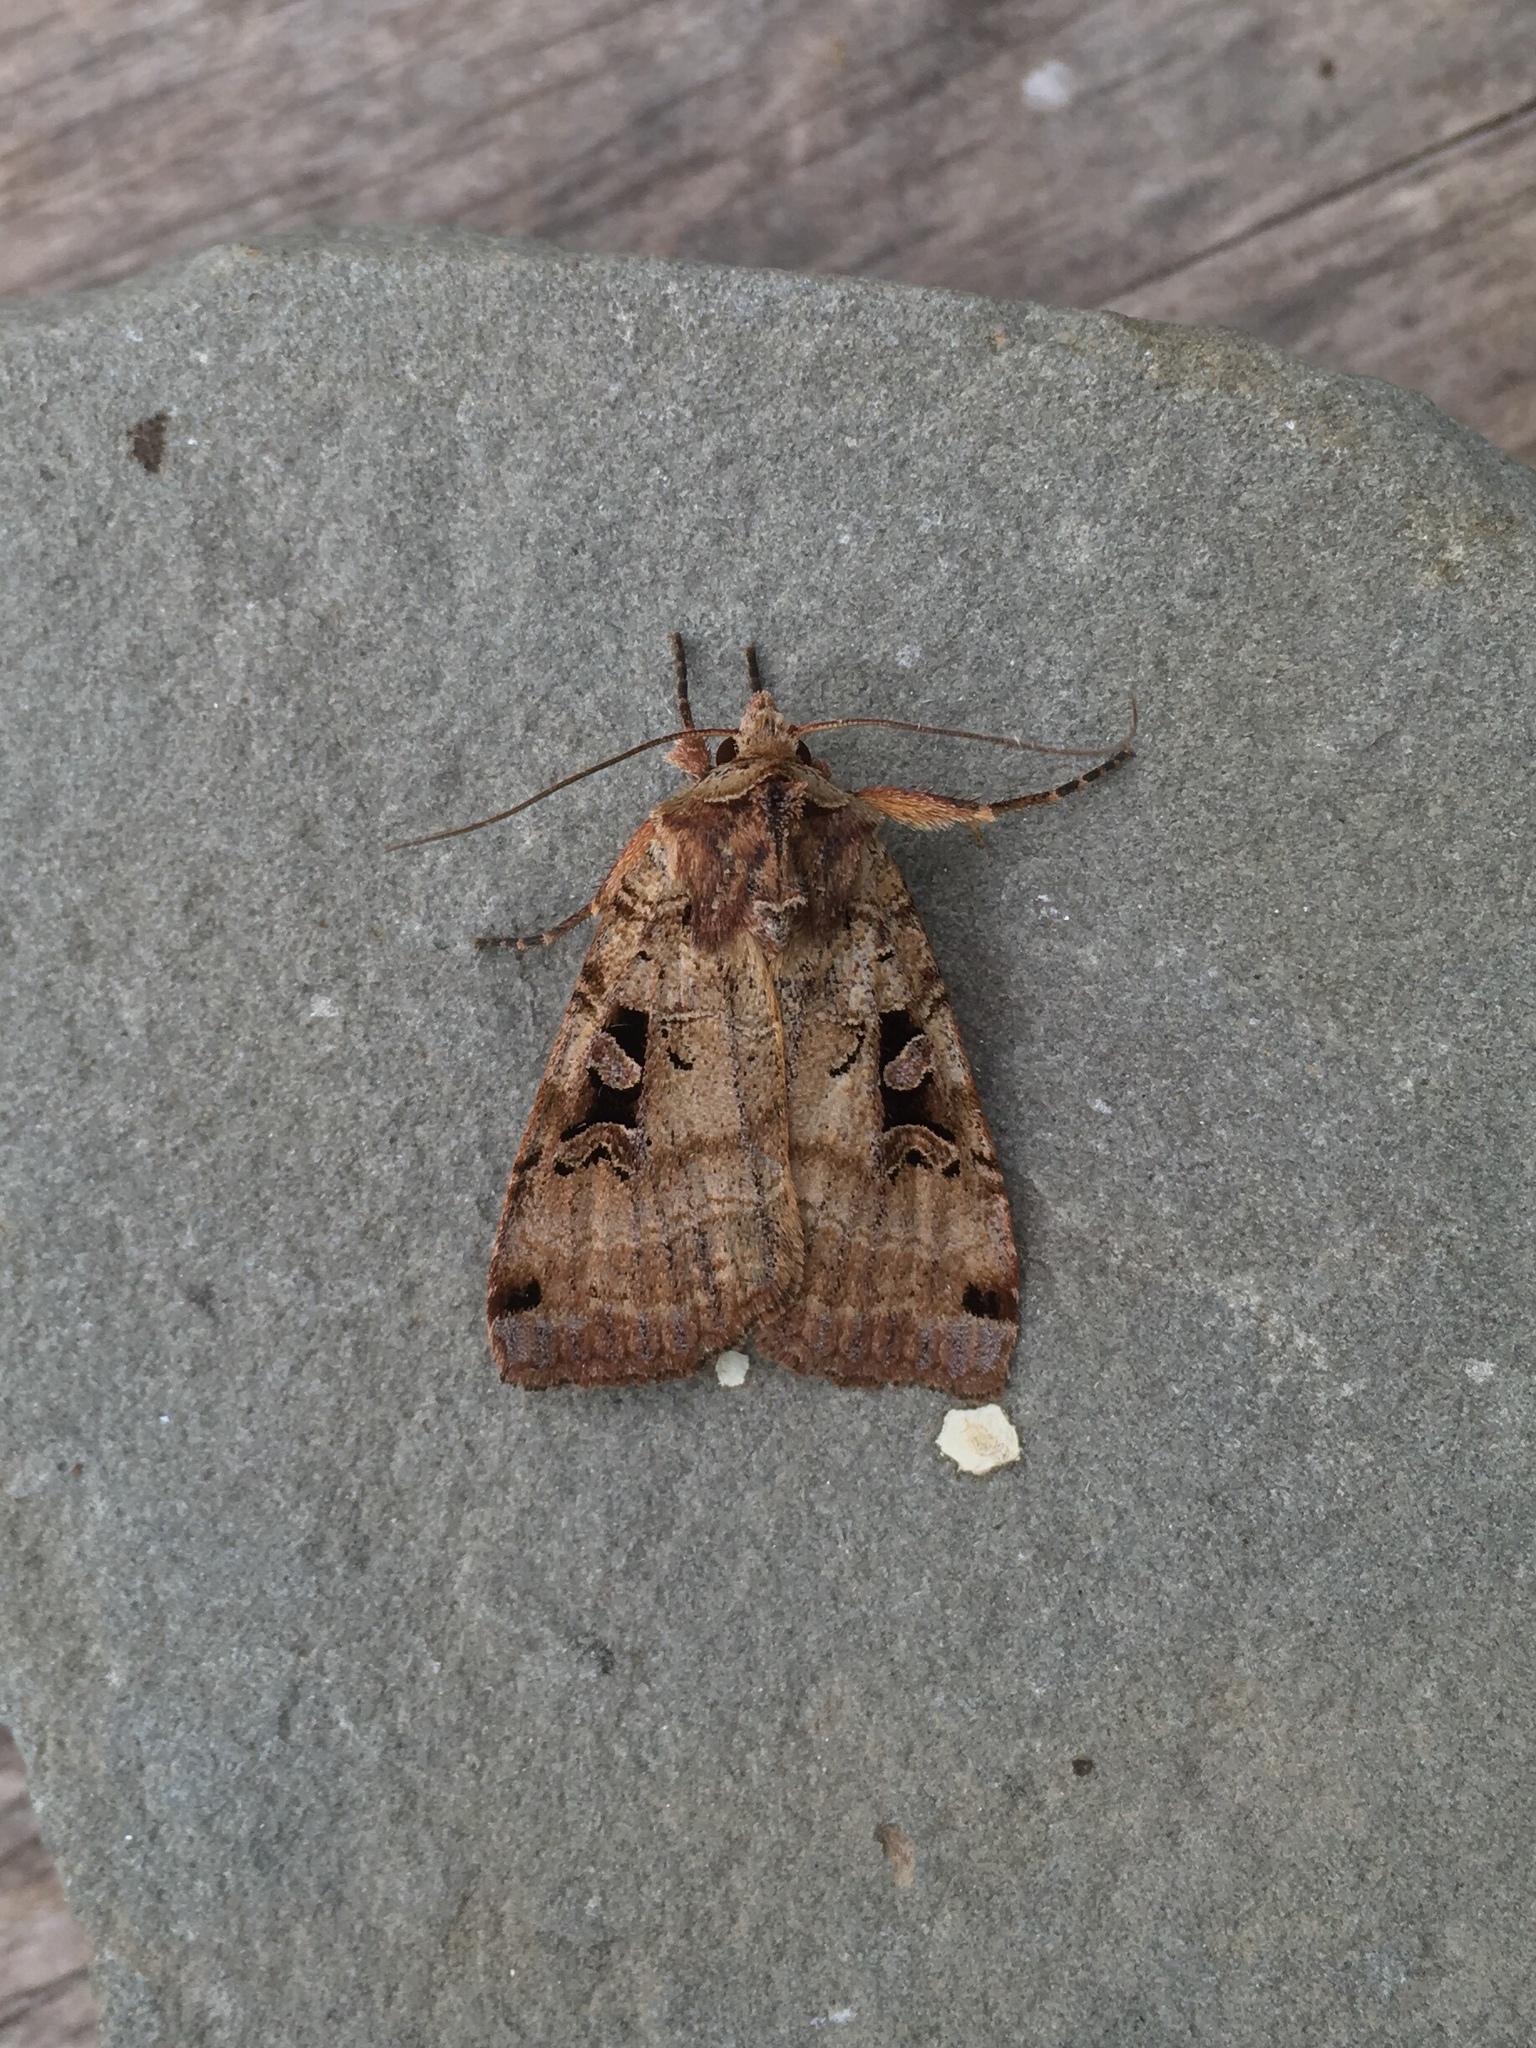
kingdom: Animalia
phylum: Arthropoda
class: Insecta
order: Lepidoptera
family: Noctuidae
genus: Xestia
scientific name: Xestia normaniana
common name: Norman's dart moth
